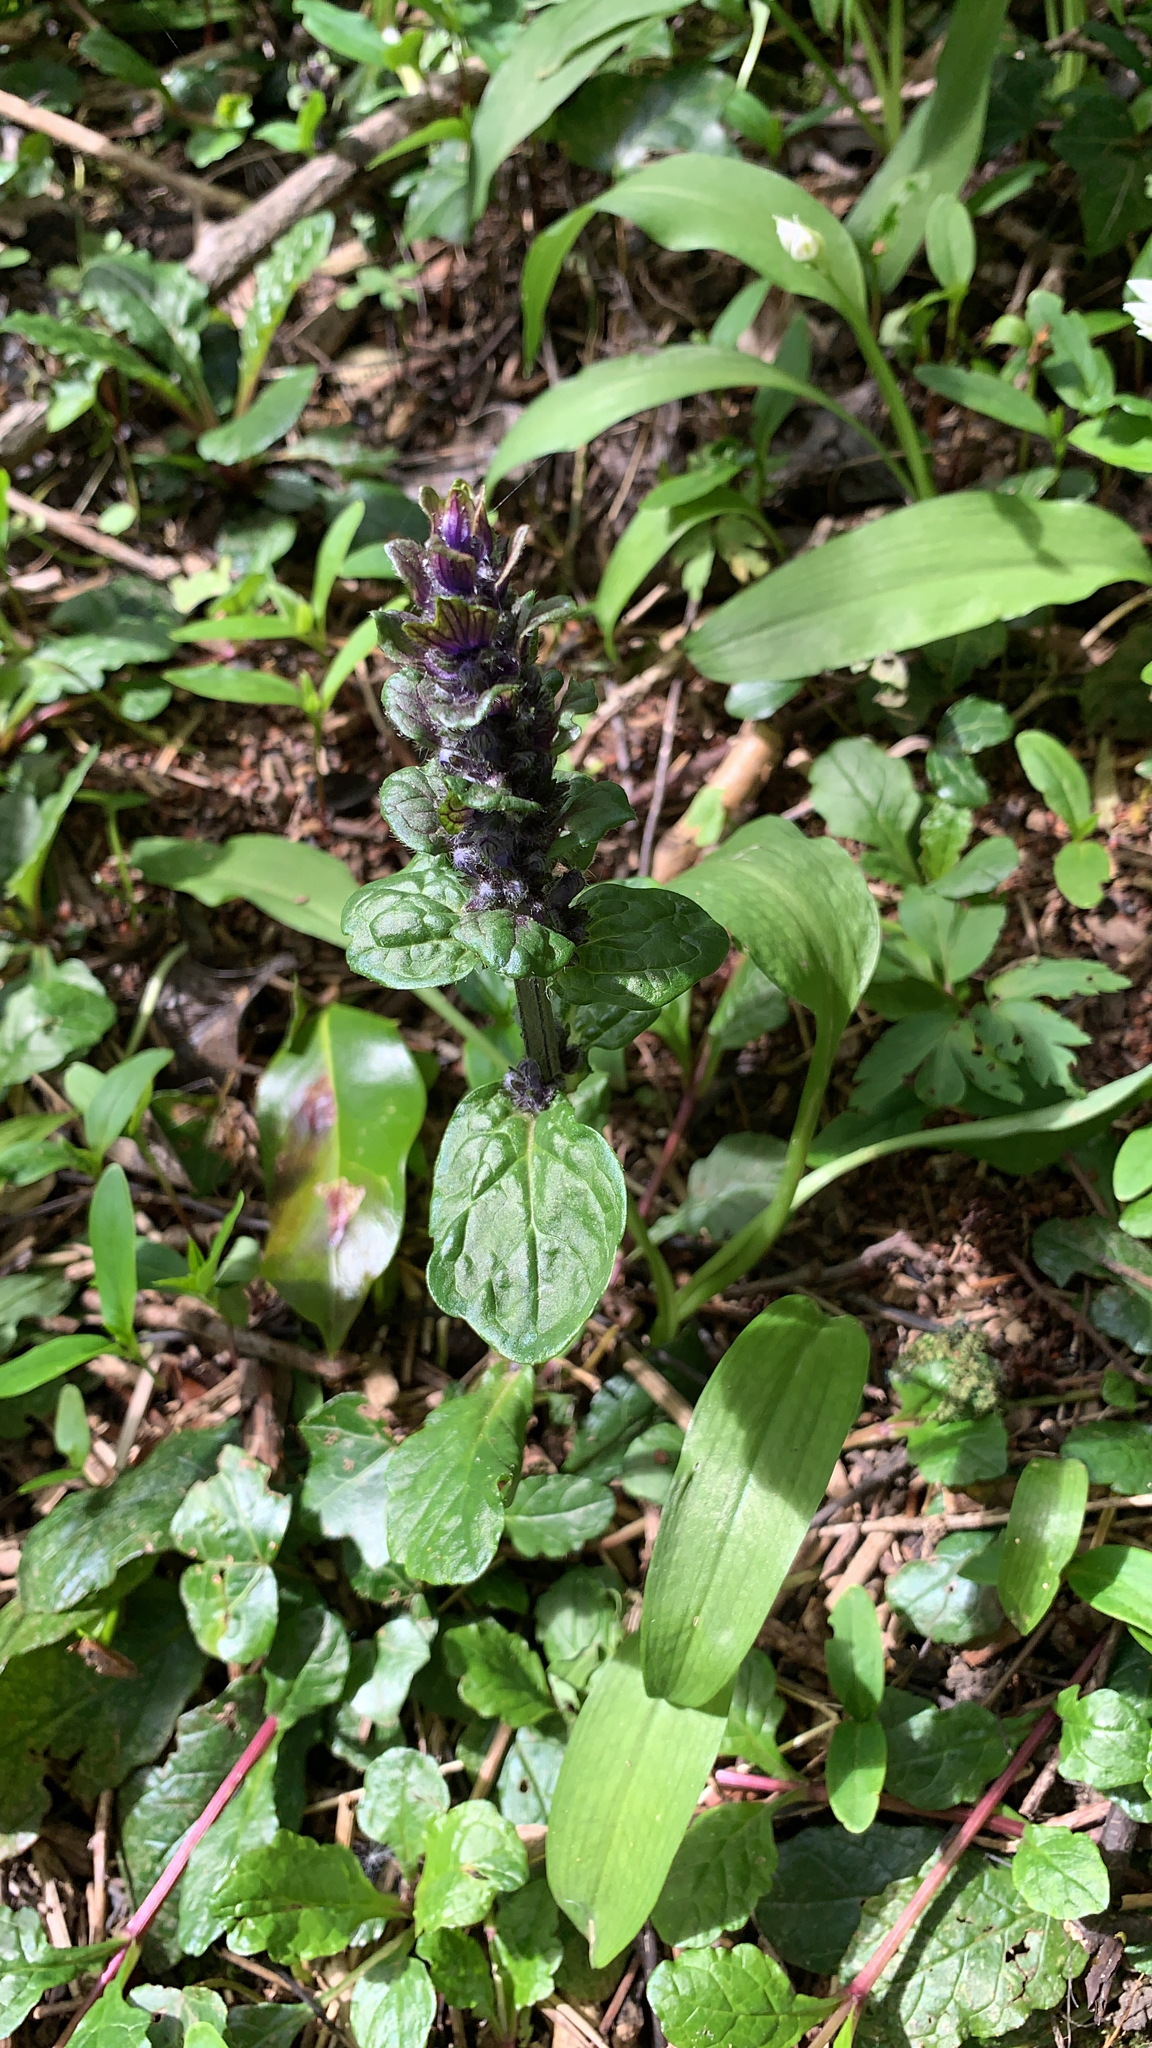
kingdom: Plantae
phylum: Tracheophyta
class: Magnoliopsida
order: Lamiales
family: Lamiaceae
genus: Ajuga
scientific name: Ajuga reptans
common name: Bugle
